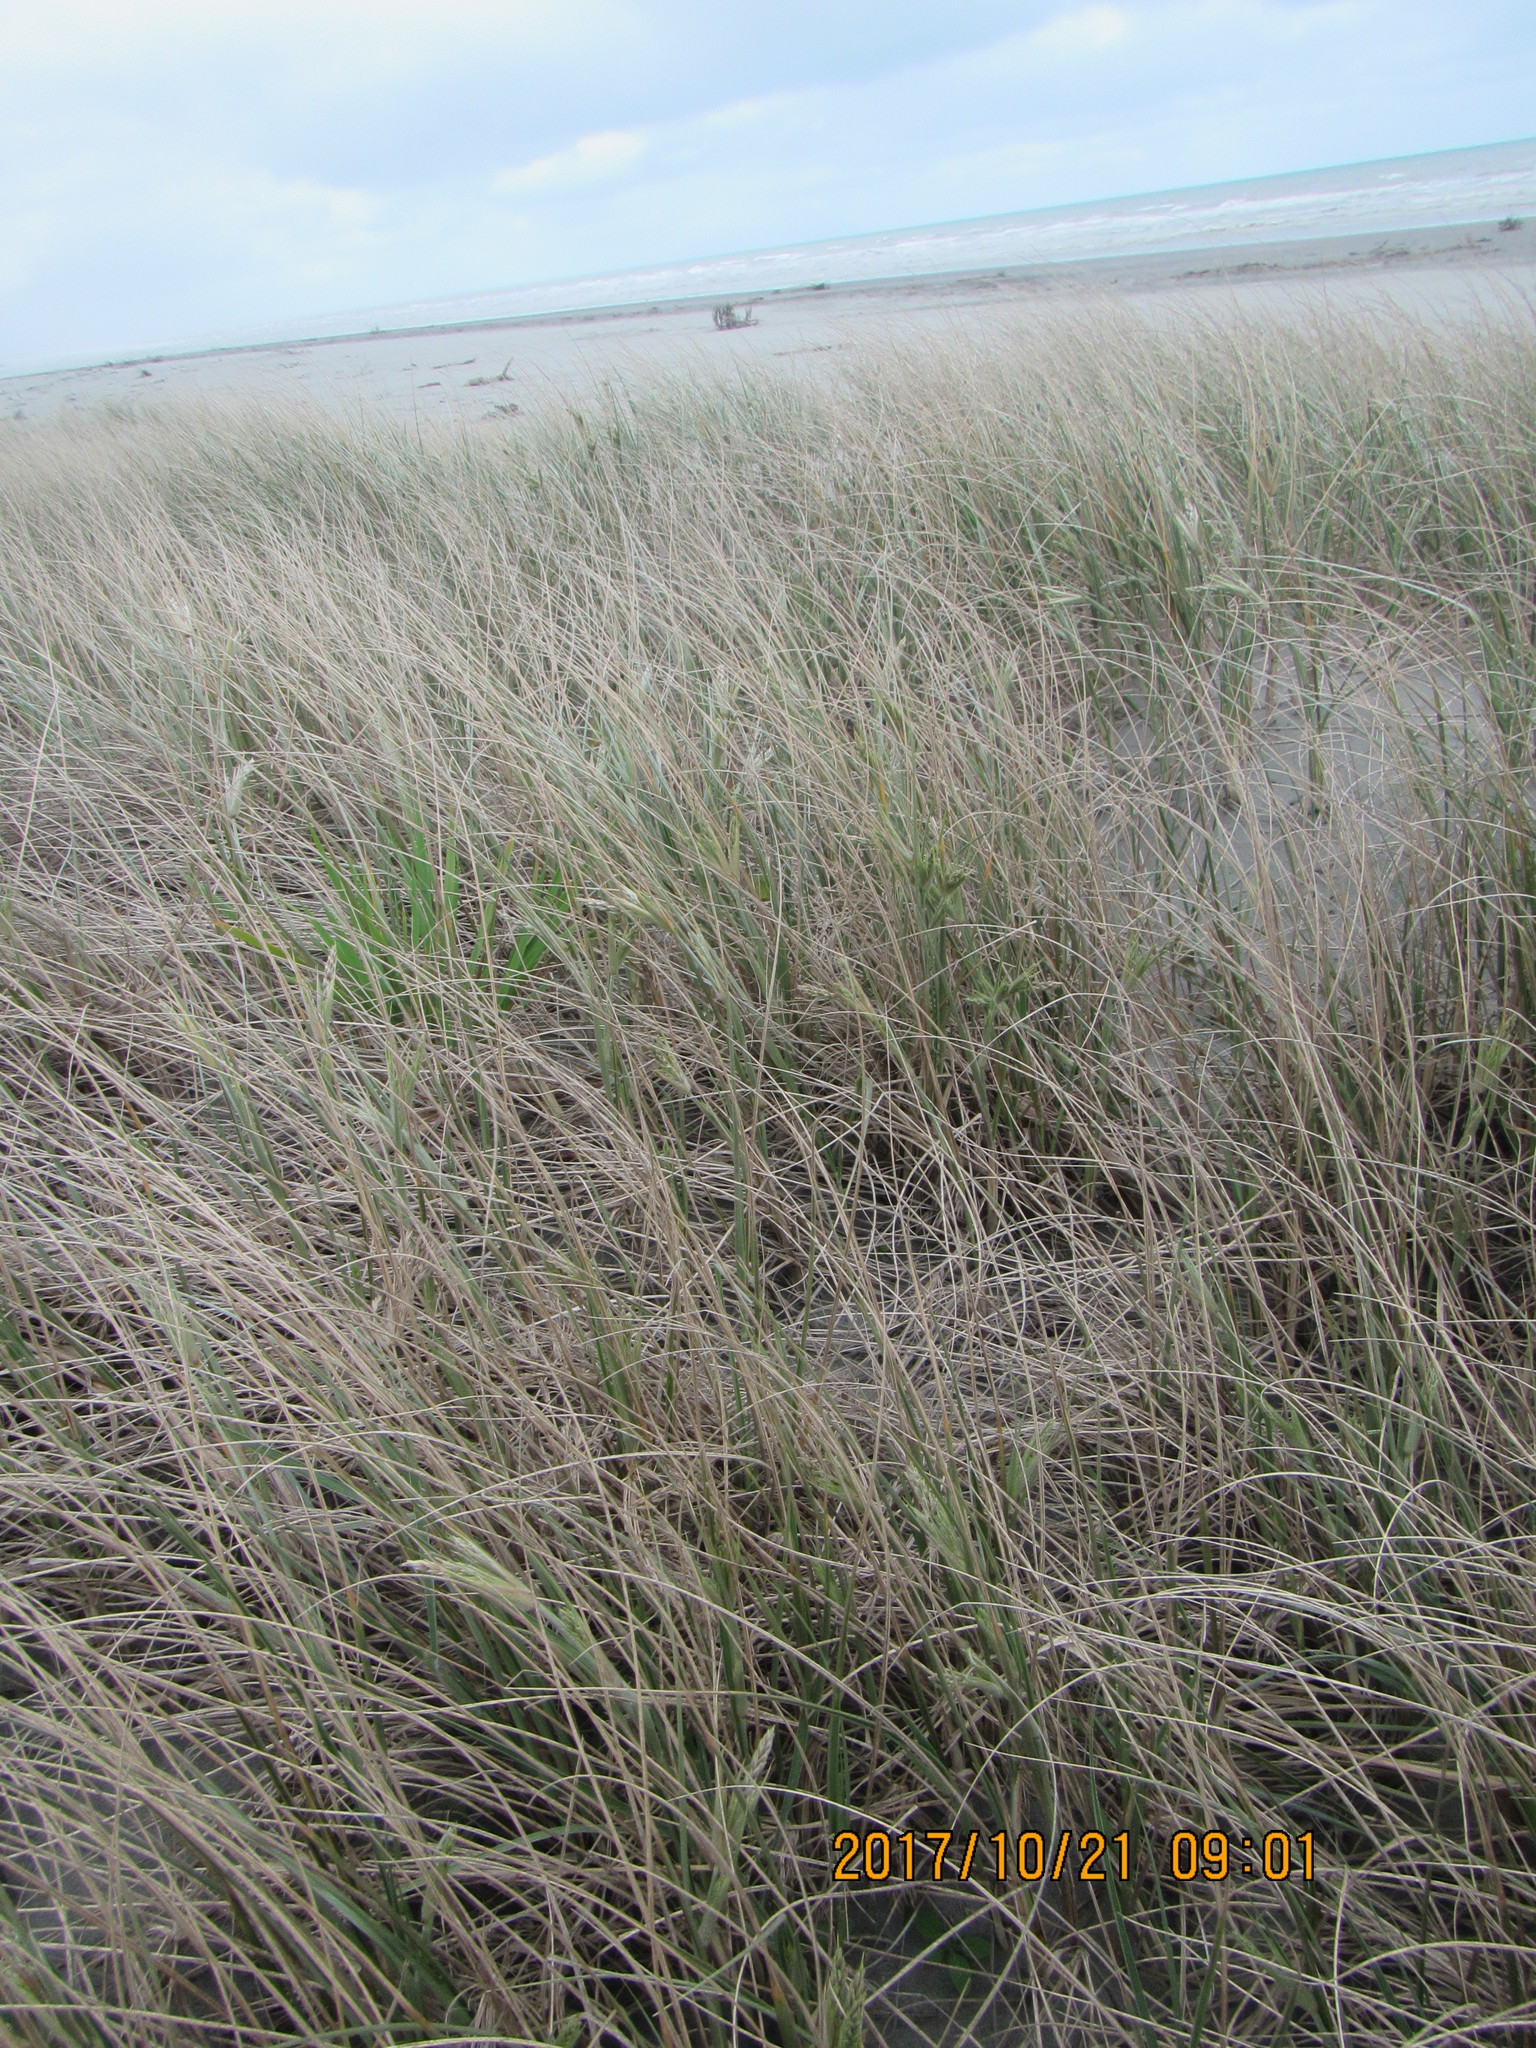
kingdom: Plantae
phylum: Tracheophyta
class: Liliopsida
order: Poales
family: Poaceae
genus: Spinifex
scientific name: Spinifex sericeus
